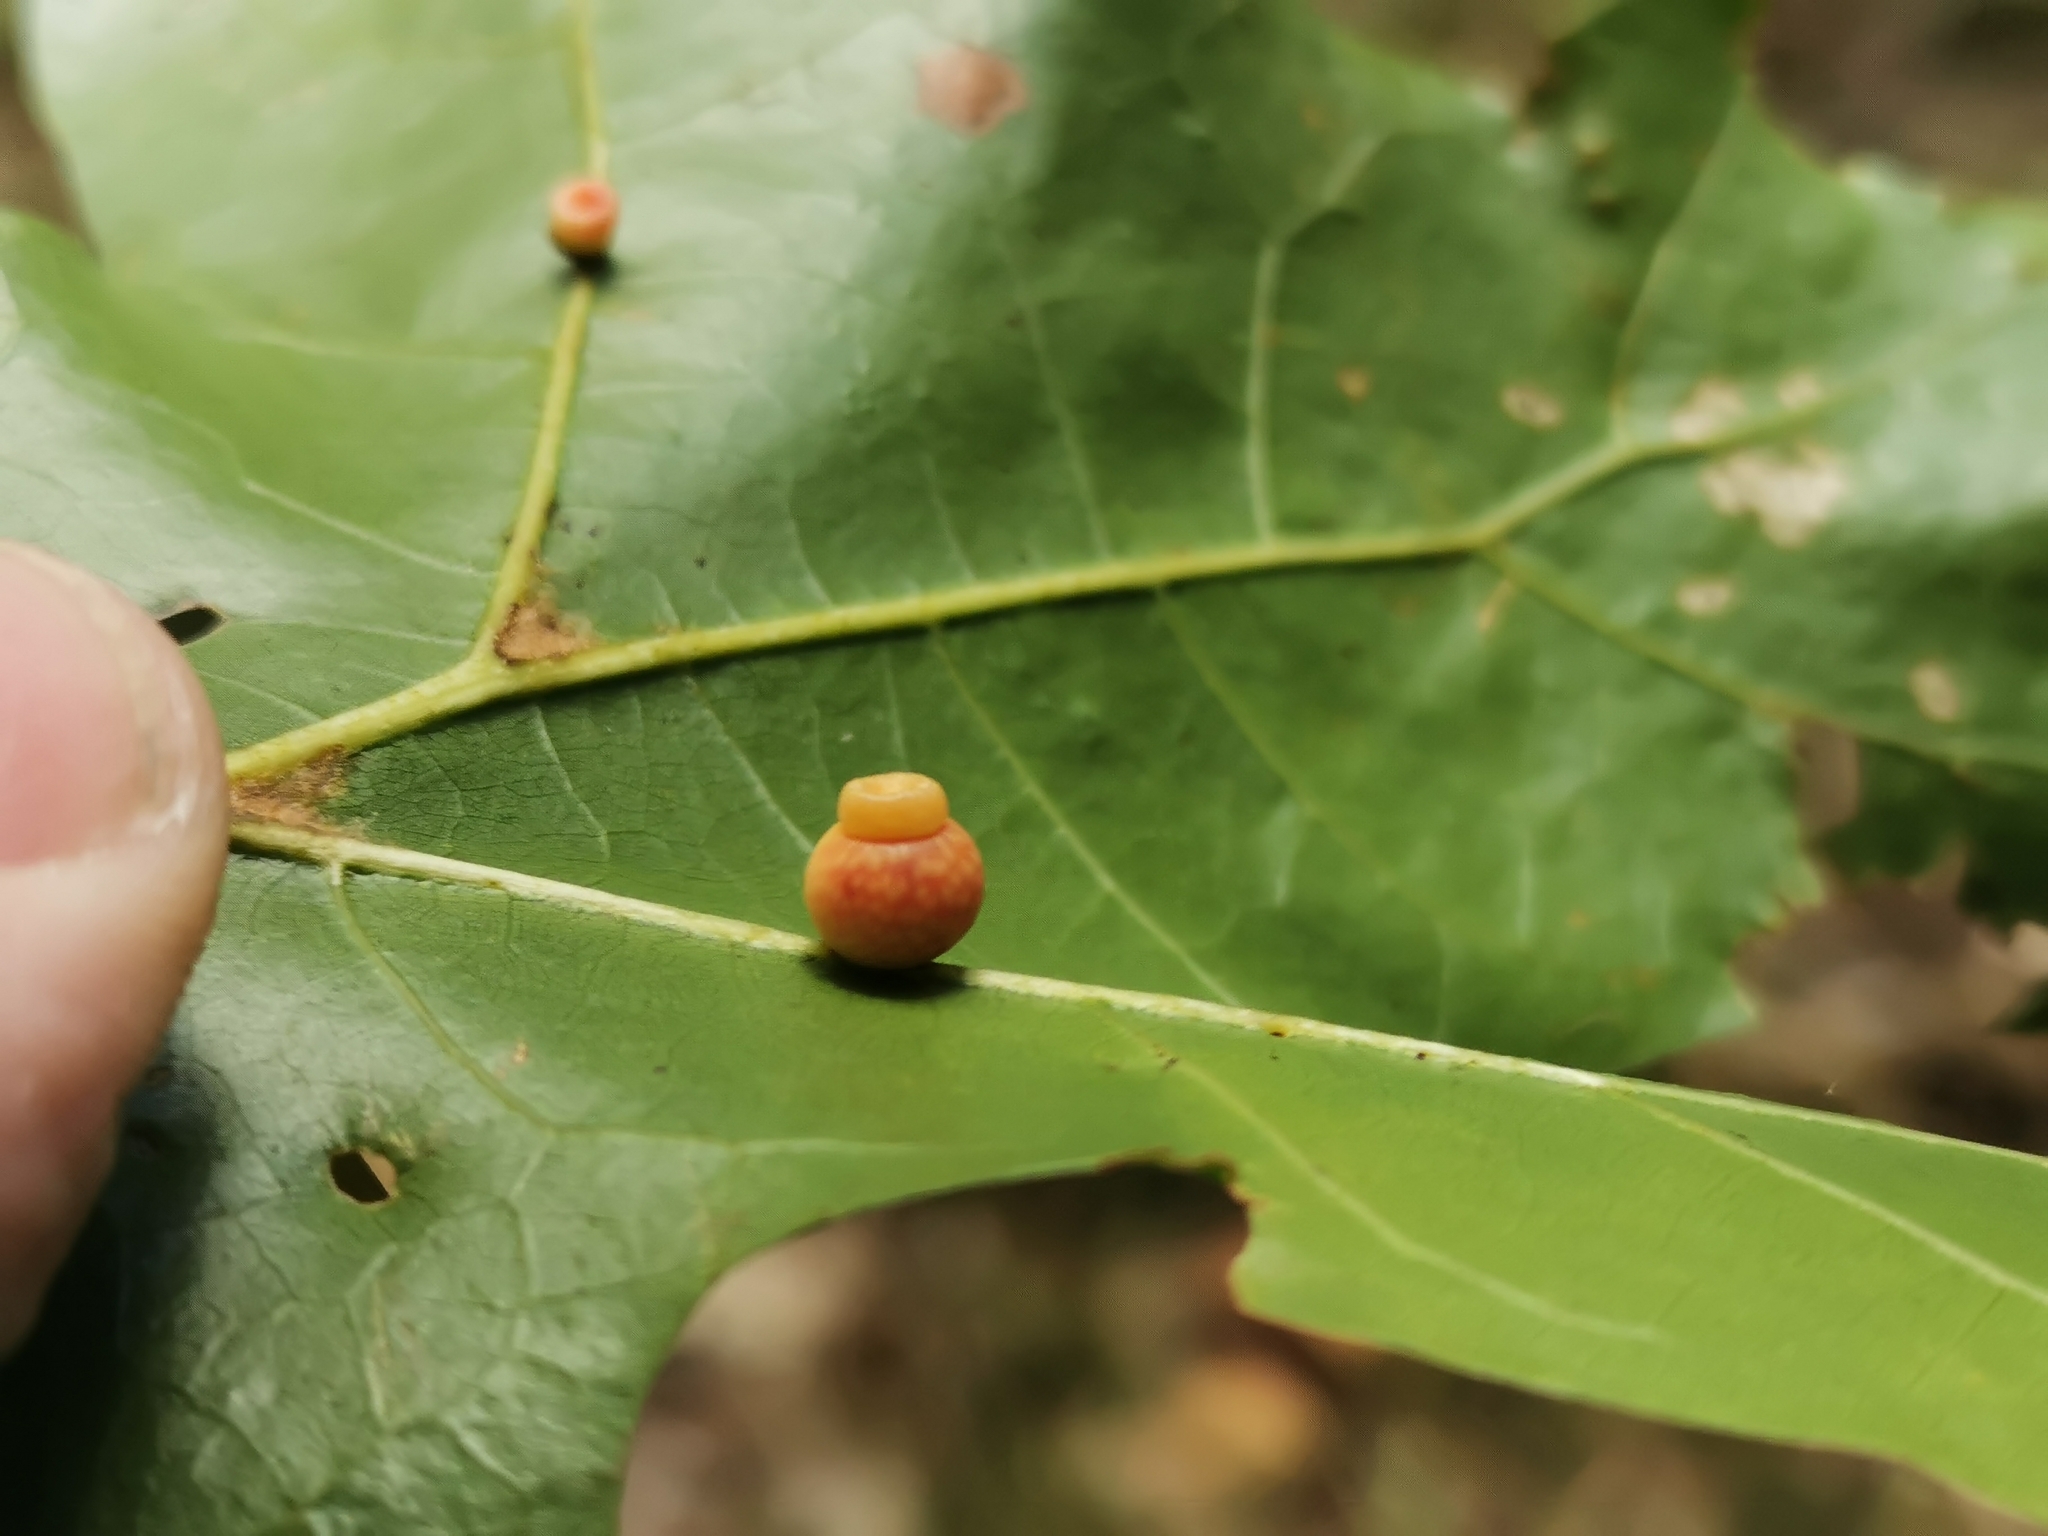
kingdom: Animalia
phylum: Arthropoda
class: Insecta
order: Hymenoptera
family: Cynipidae
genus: Kokkocynips
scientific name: Kokkocynips rileyi
